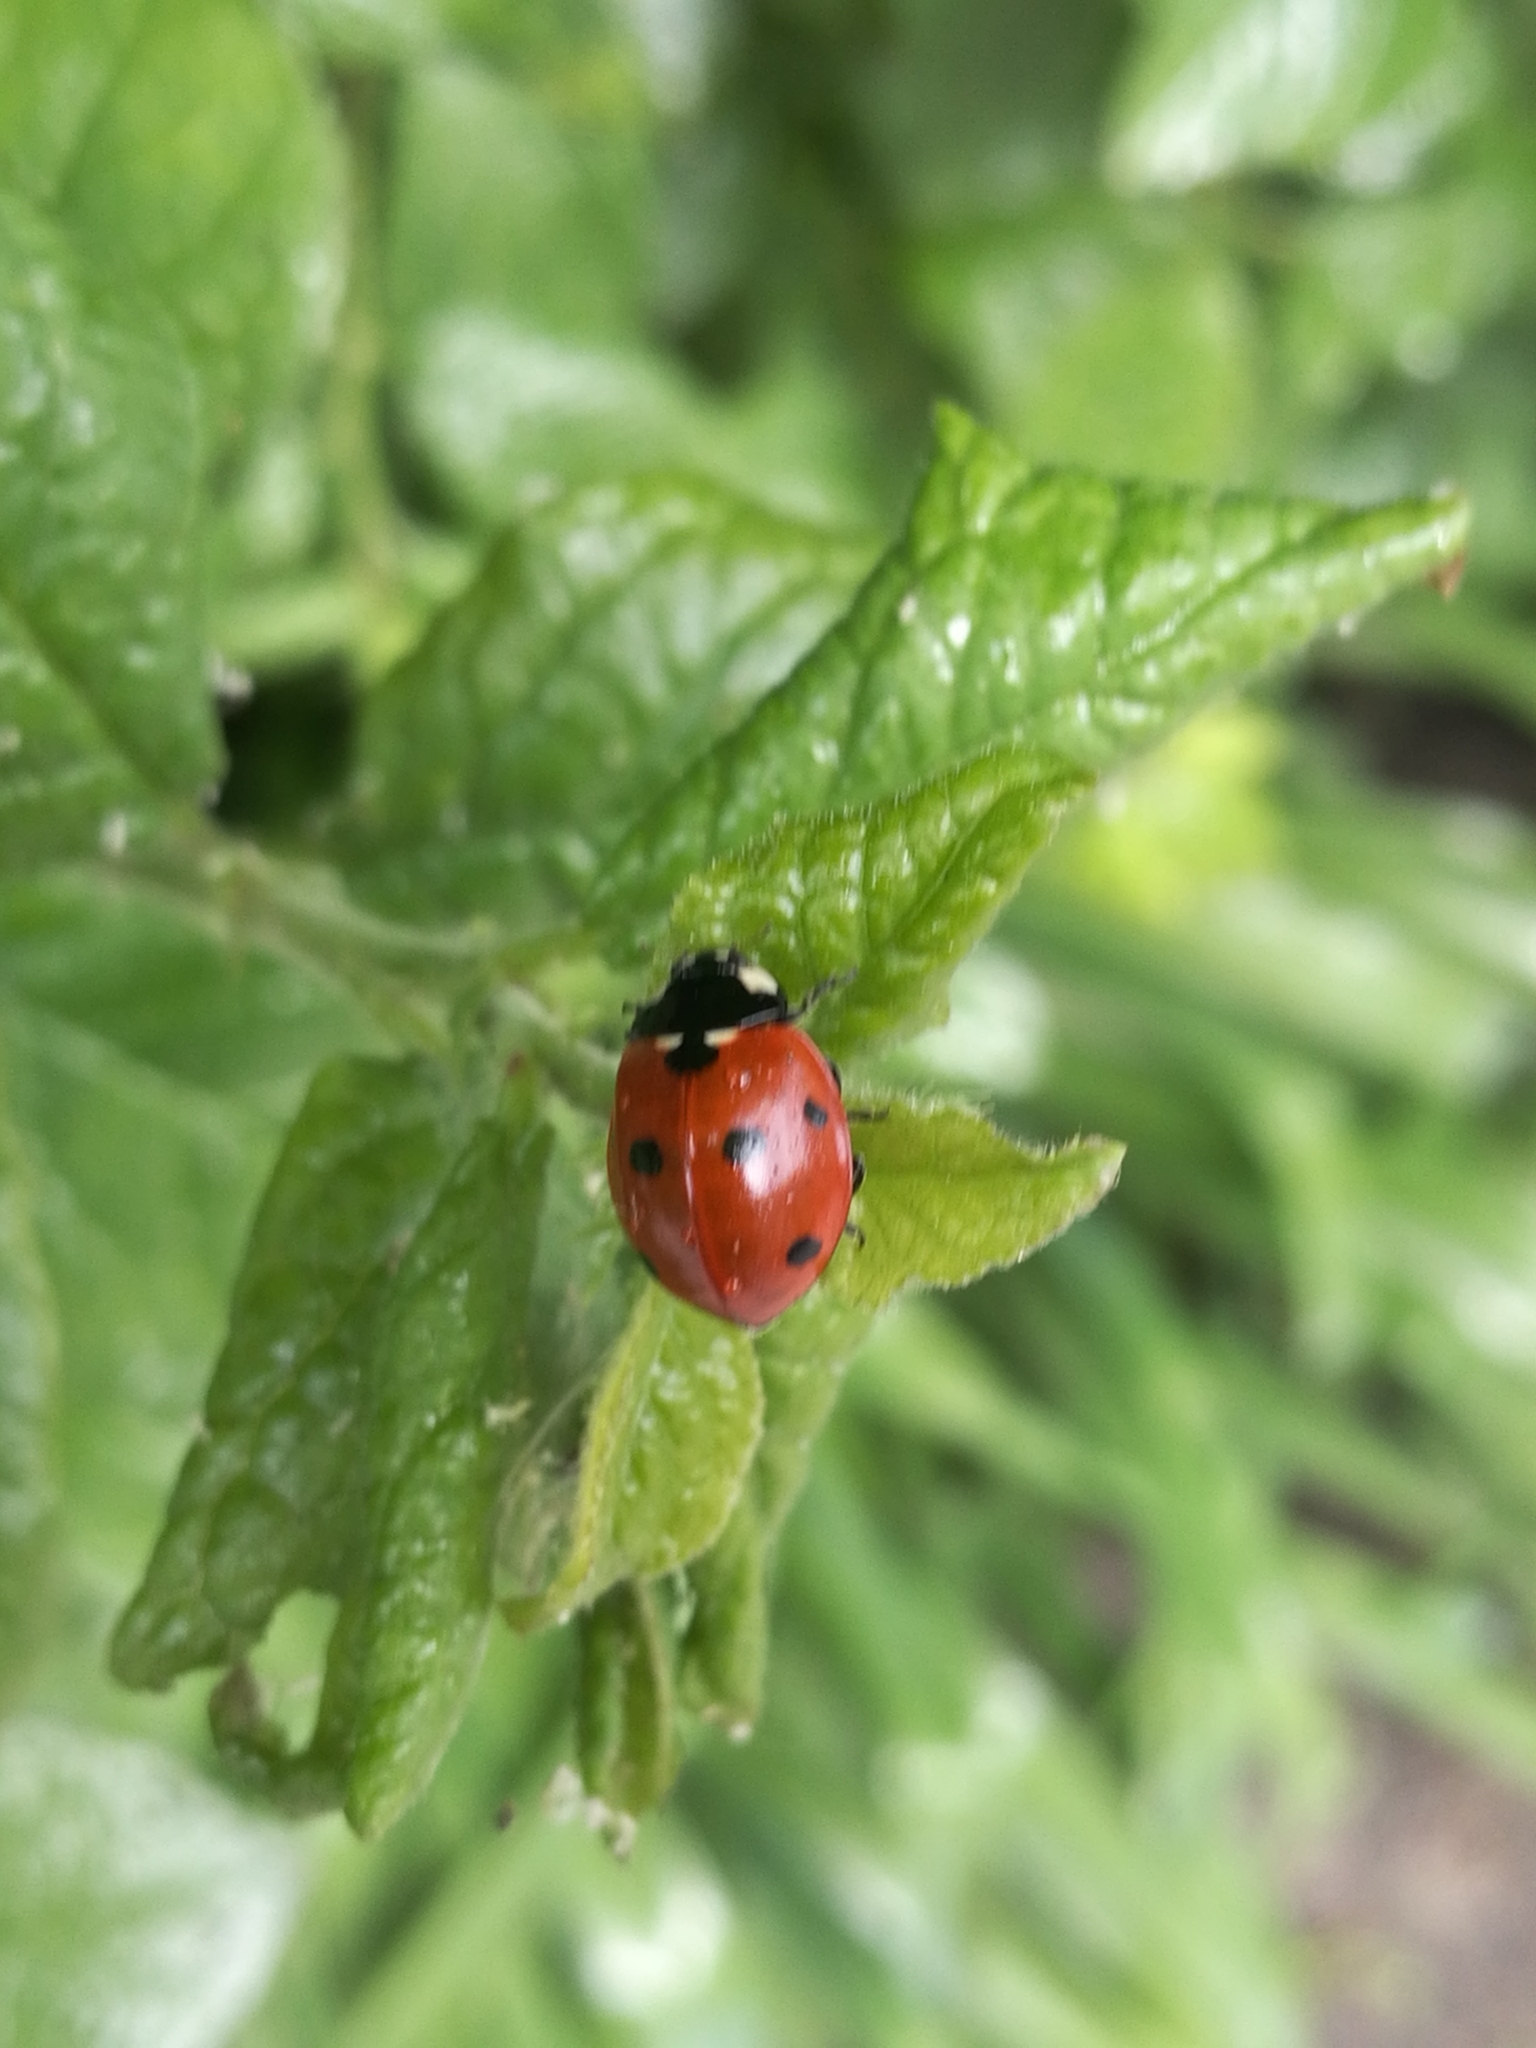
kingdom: Animalia
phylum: Arthropoda
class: Insecta
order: Coleoptera
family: Coccinellidae
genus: Coccinella
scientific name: Coccinella septempunctata
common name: Sevenspotted lady beetle
